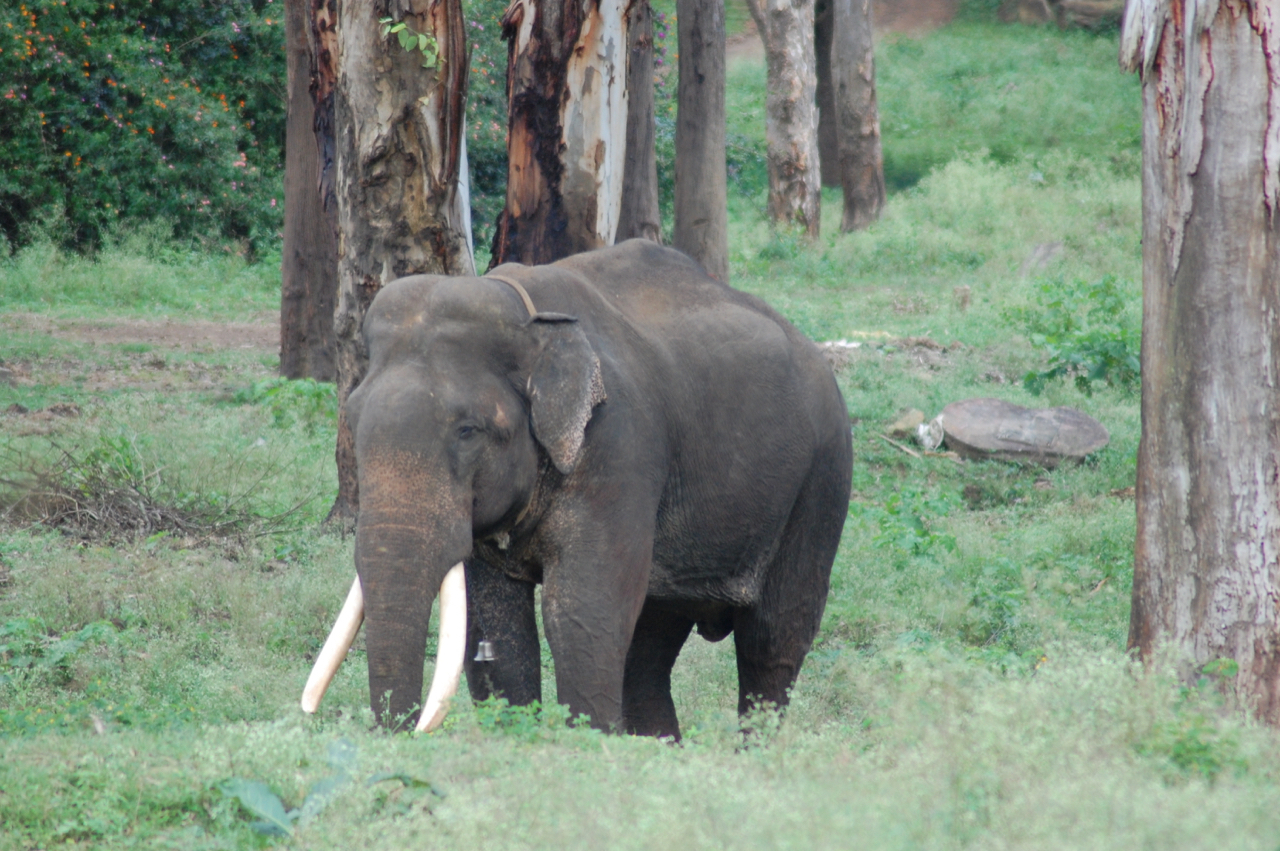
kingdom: Animalia
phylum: Chordata
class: Mammalia
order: Proboscidea
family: Elephantidae
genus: Elephas
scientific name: Elephas maximus
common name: Asian elephant
